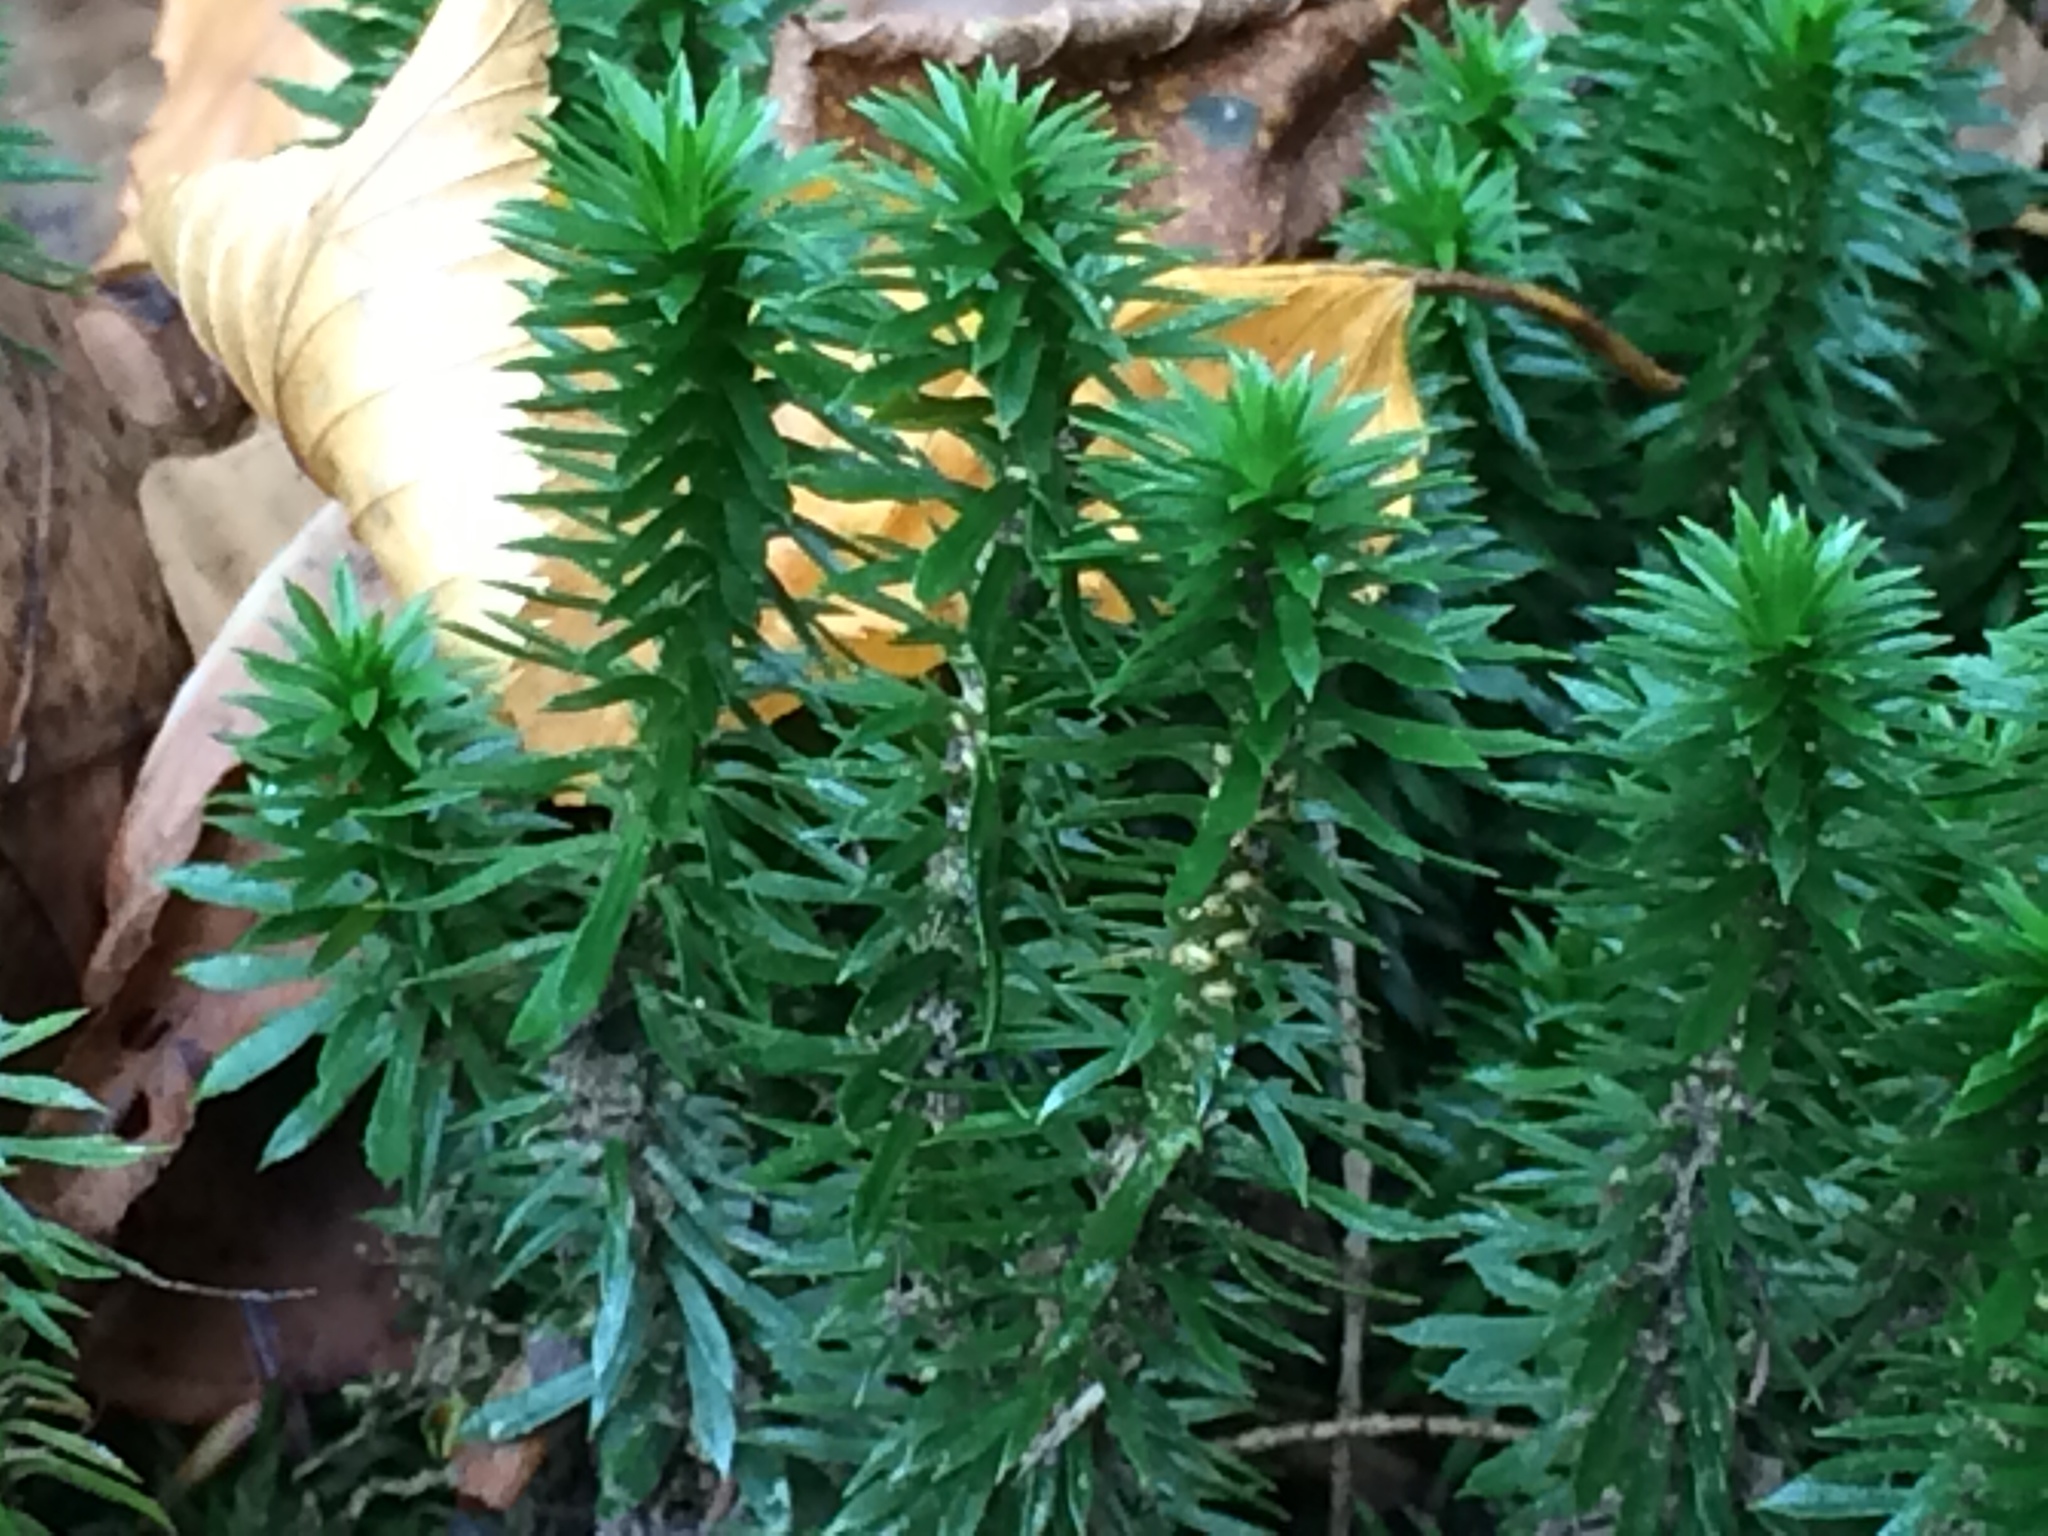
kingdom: Plantae
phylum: Tracheophyta
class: Lycopodiopsida
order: Lycopodiales
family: Lycopodiaceae
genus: Huperzia
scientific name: Huperzia lucidula
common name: Shining clubmoss
